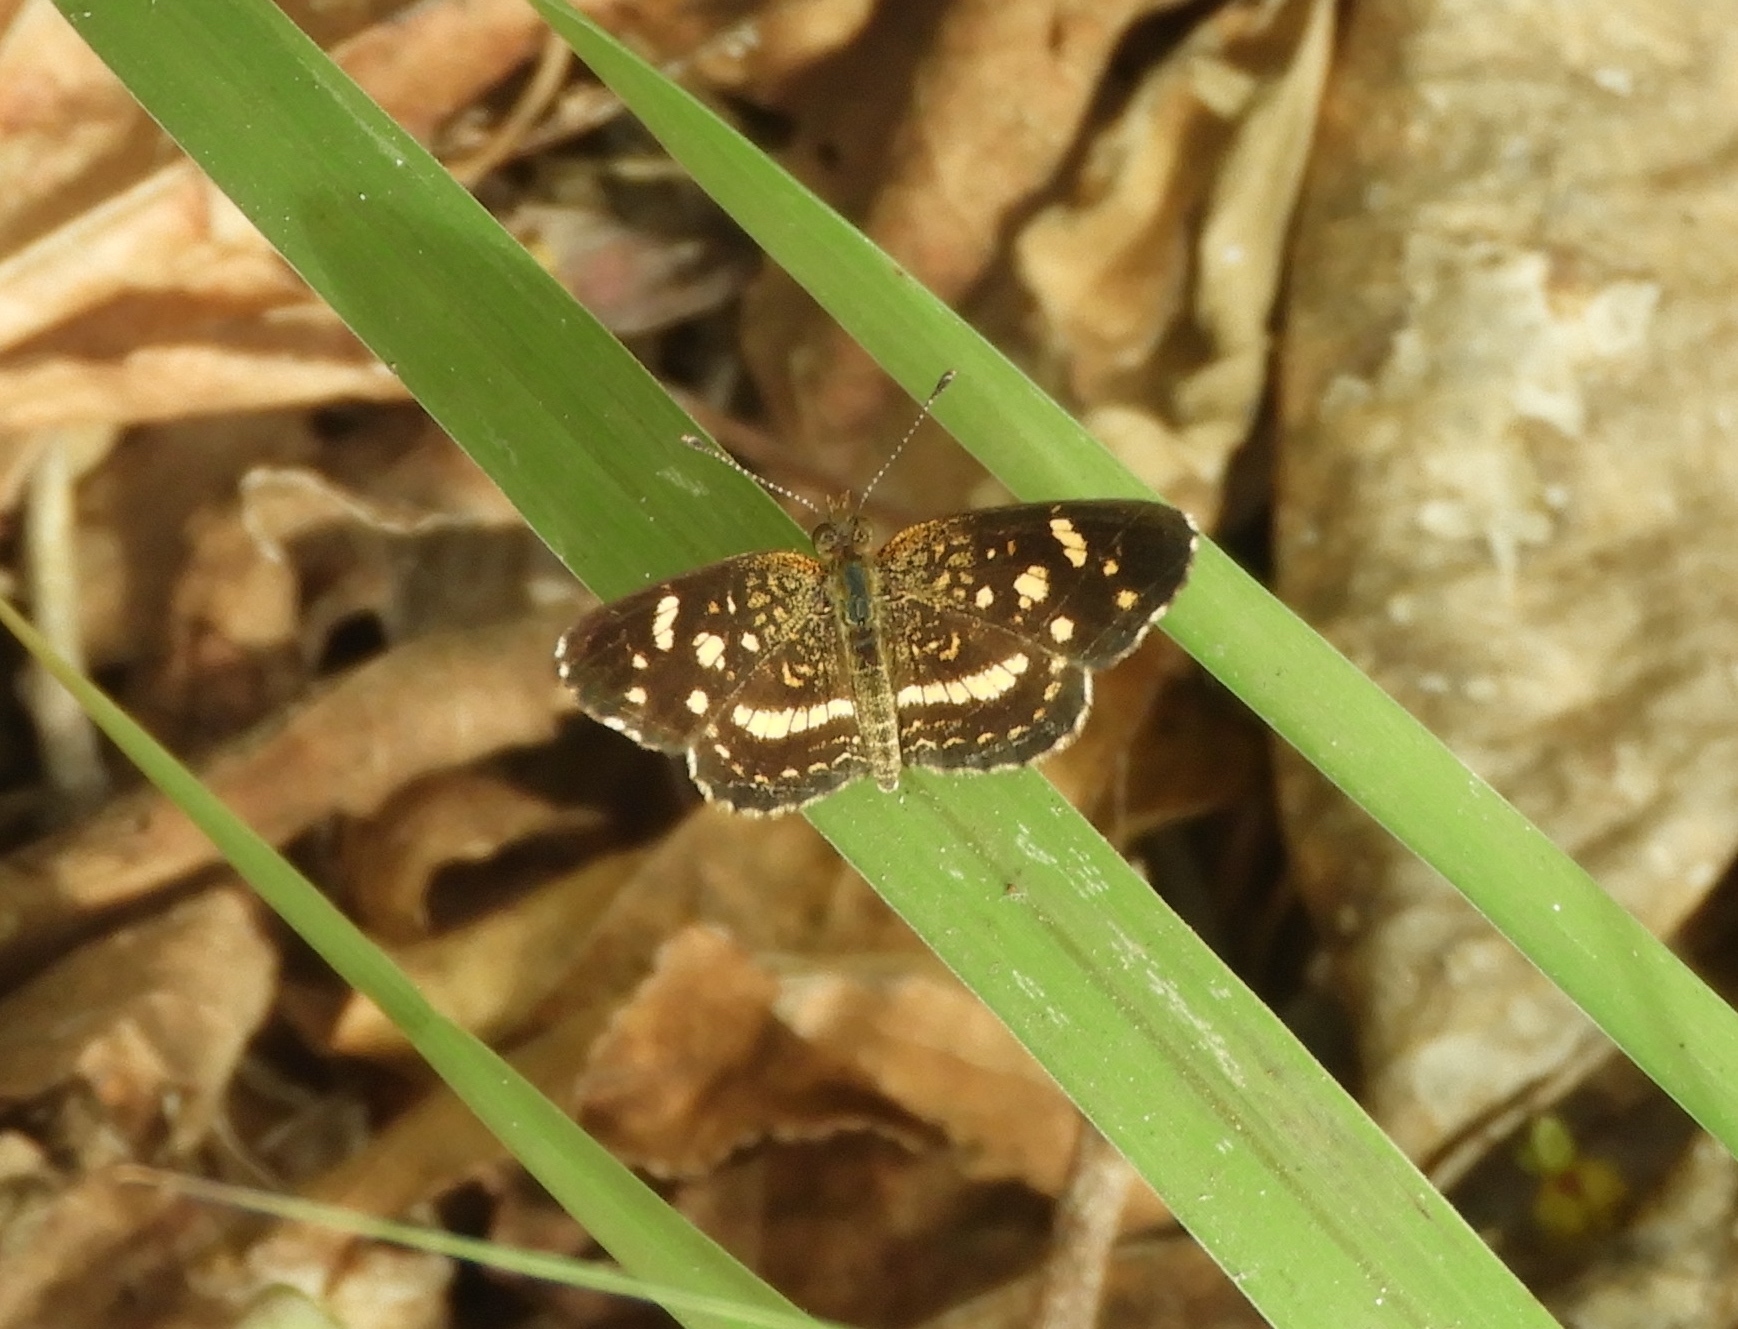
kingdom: Animalia
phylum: Arthropoda
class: Insecta
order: Lepidoptera
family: Nymphalidae
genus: Anthanassa
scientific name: Anthanassa tulcis
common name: Pale-banded crescent
